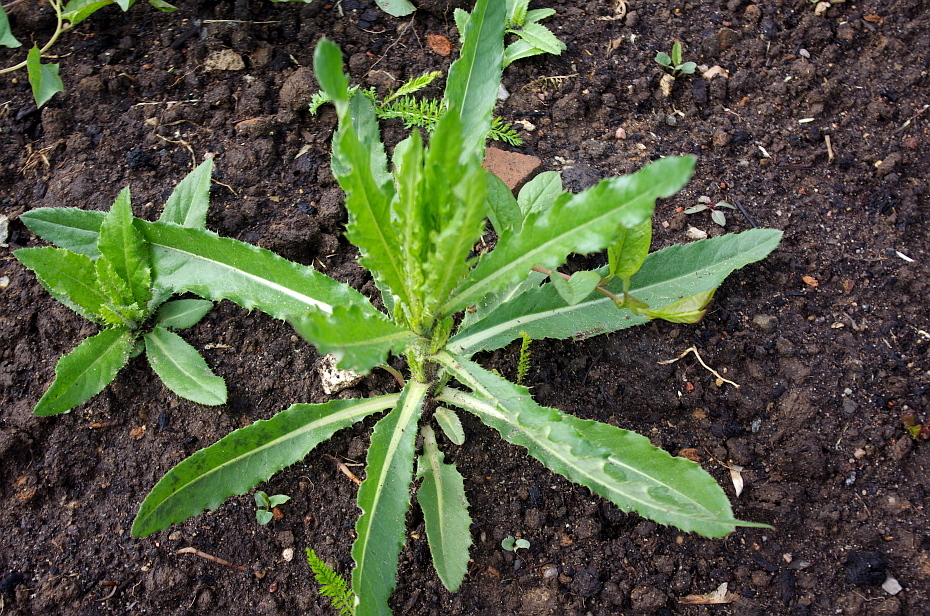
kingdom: Plantae
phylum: Tracheophyta
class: Magnoliopsida
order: Asterales
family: Asteraceae
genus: Cirsium
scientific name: Cirsium arvense
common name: Creeping thistle
